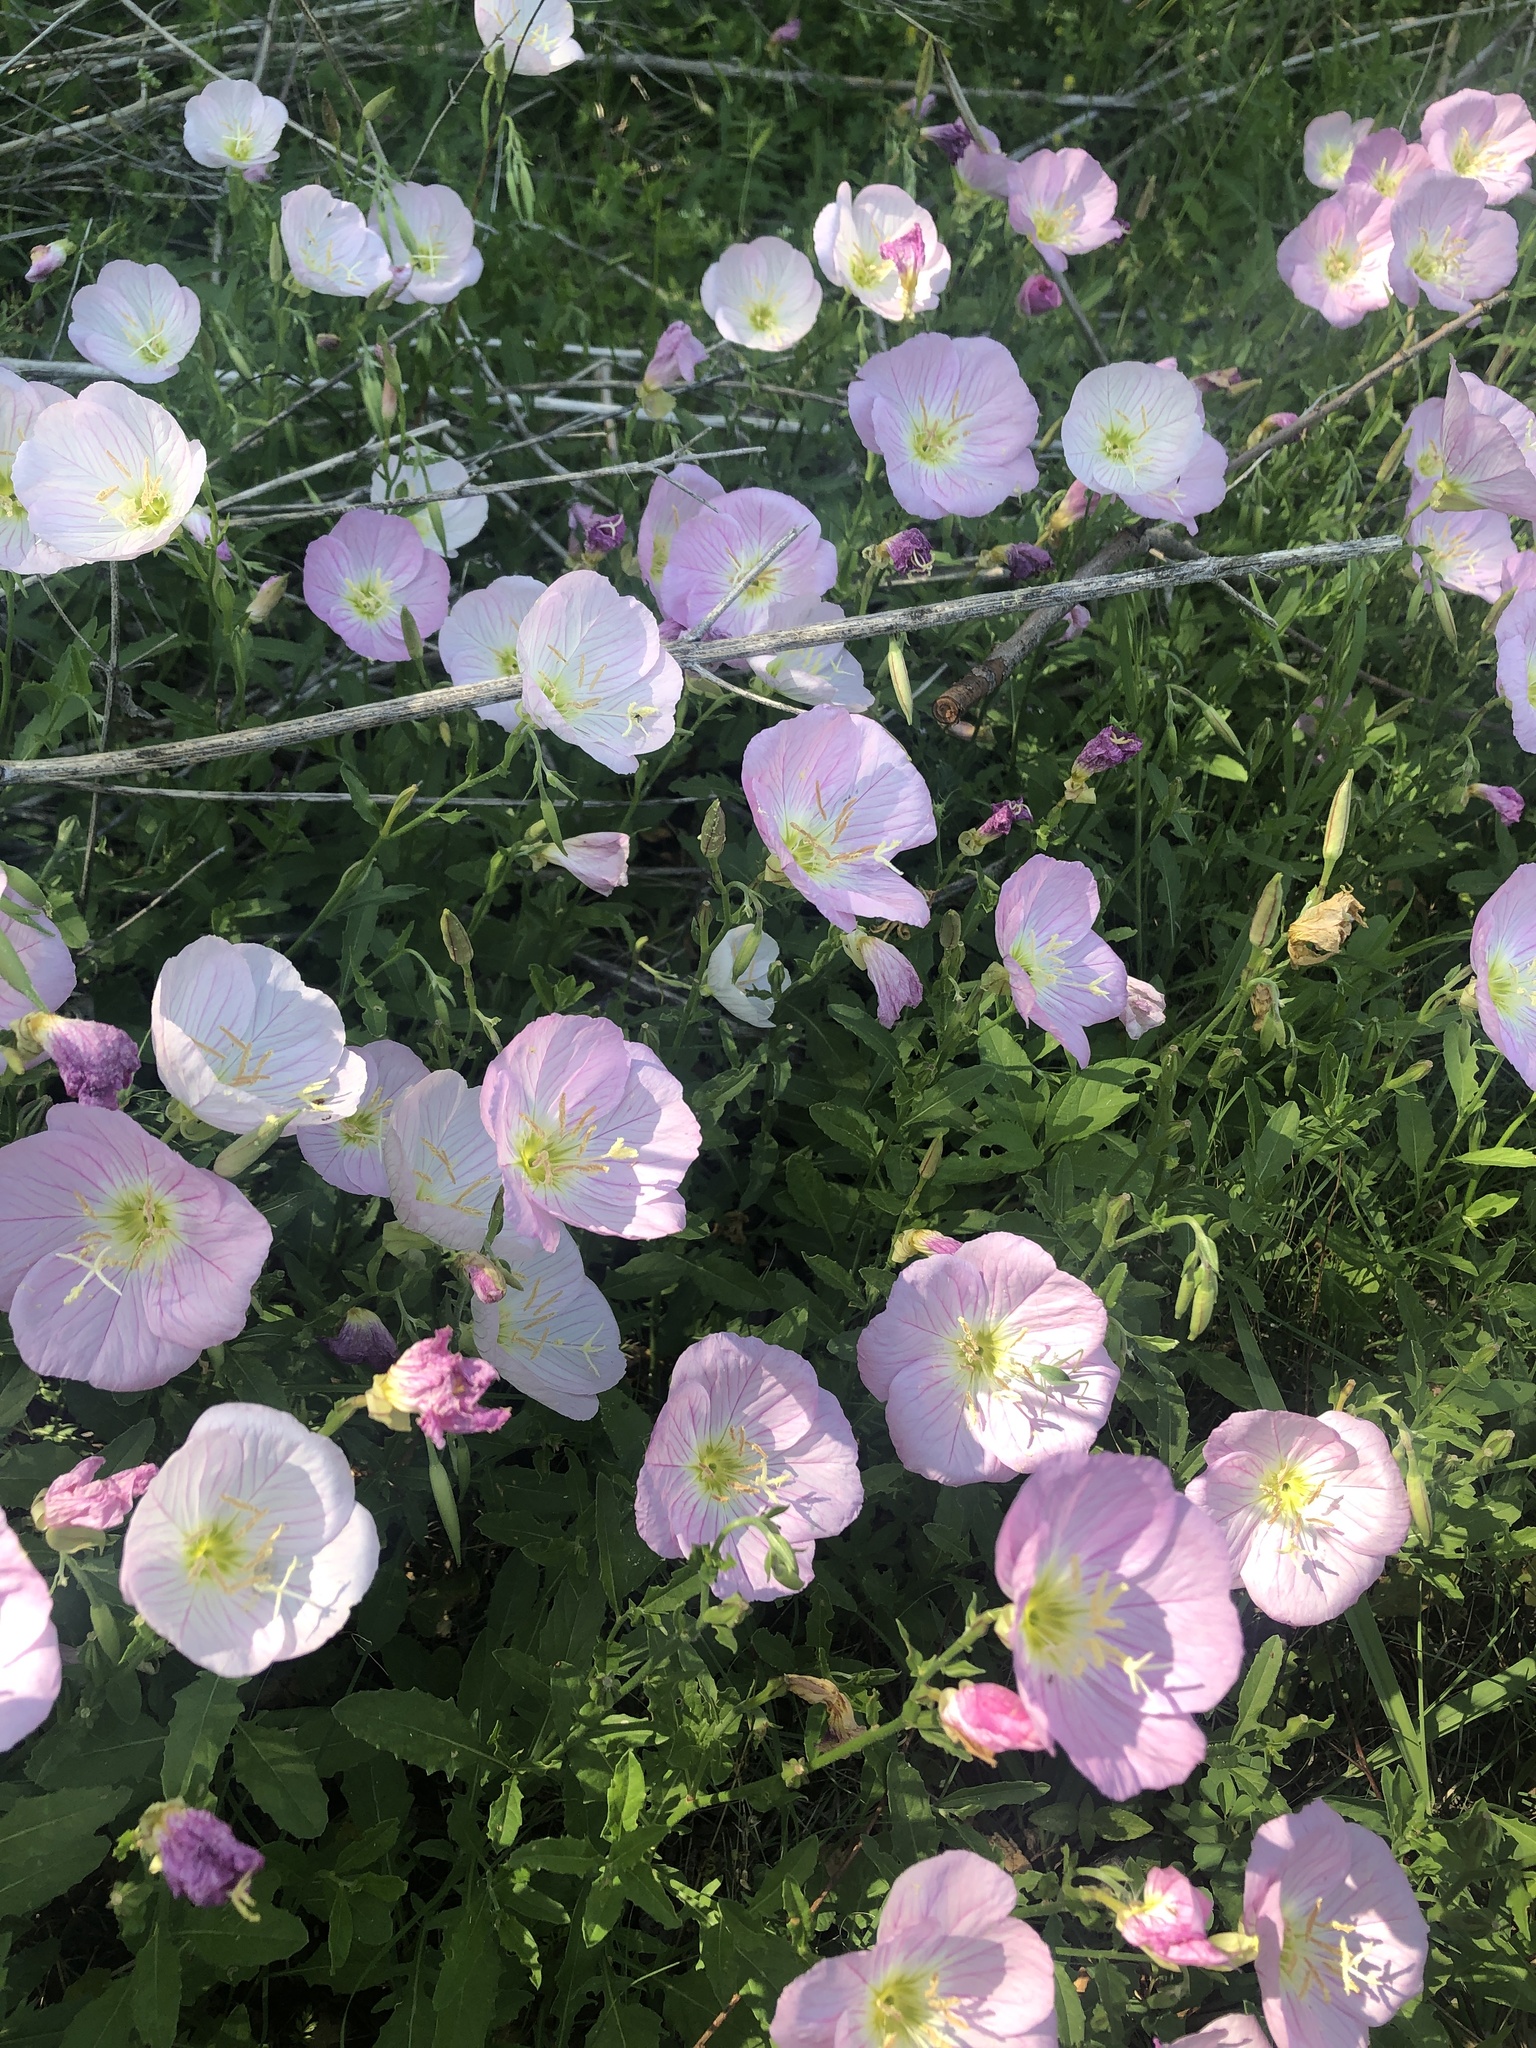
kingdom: Plantae
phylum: Tracheophyta
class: Magnoliopsida
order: Myrtales
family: Onagraceae
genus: Oenothera
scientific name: Oenothera speciosa
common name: White evening-primrose
